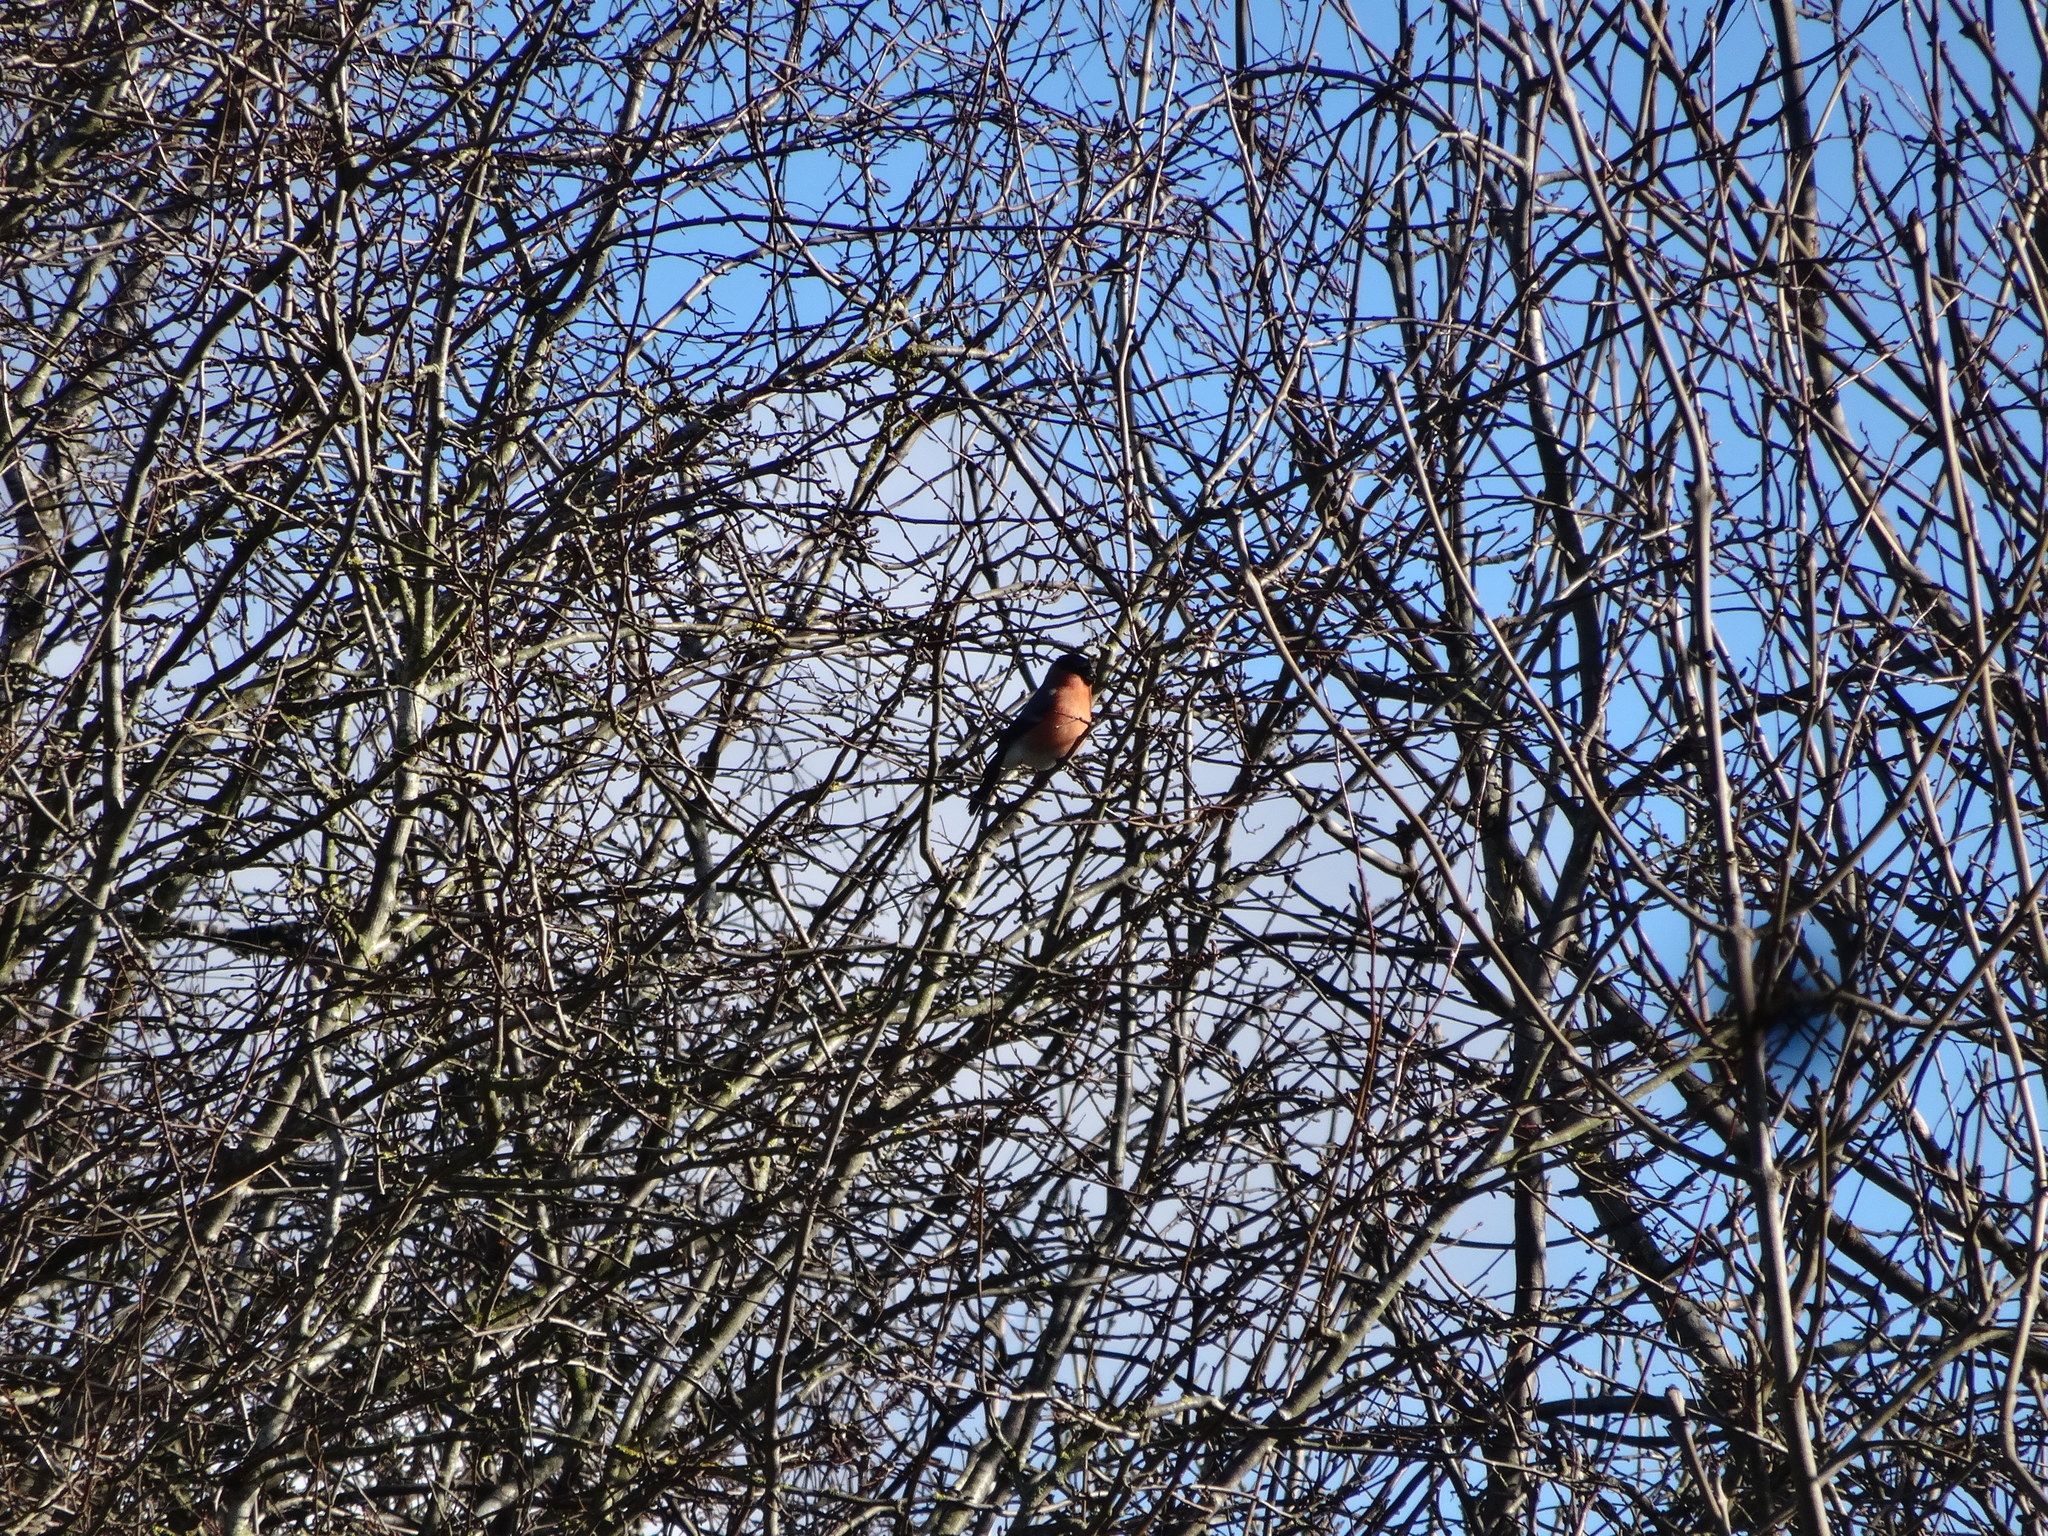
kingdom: Animalia
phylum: Chordata
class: Aves
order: Passeriformes
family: Fringillidae
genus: Pyrrhula
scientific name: Pyrrhula pyrrhula
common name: Eurasian bullfinch
